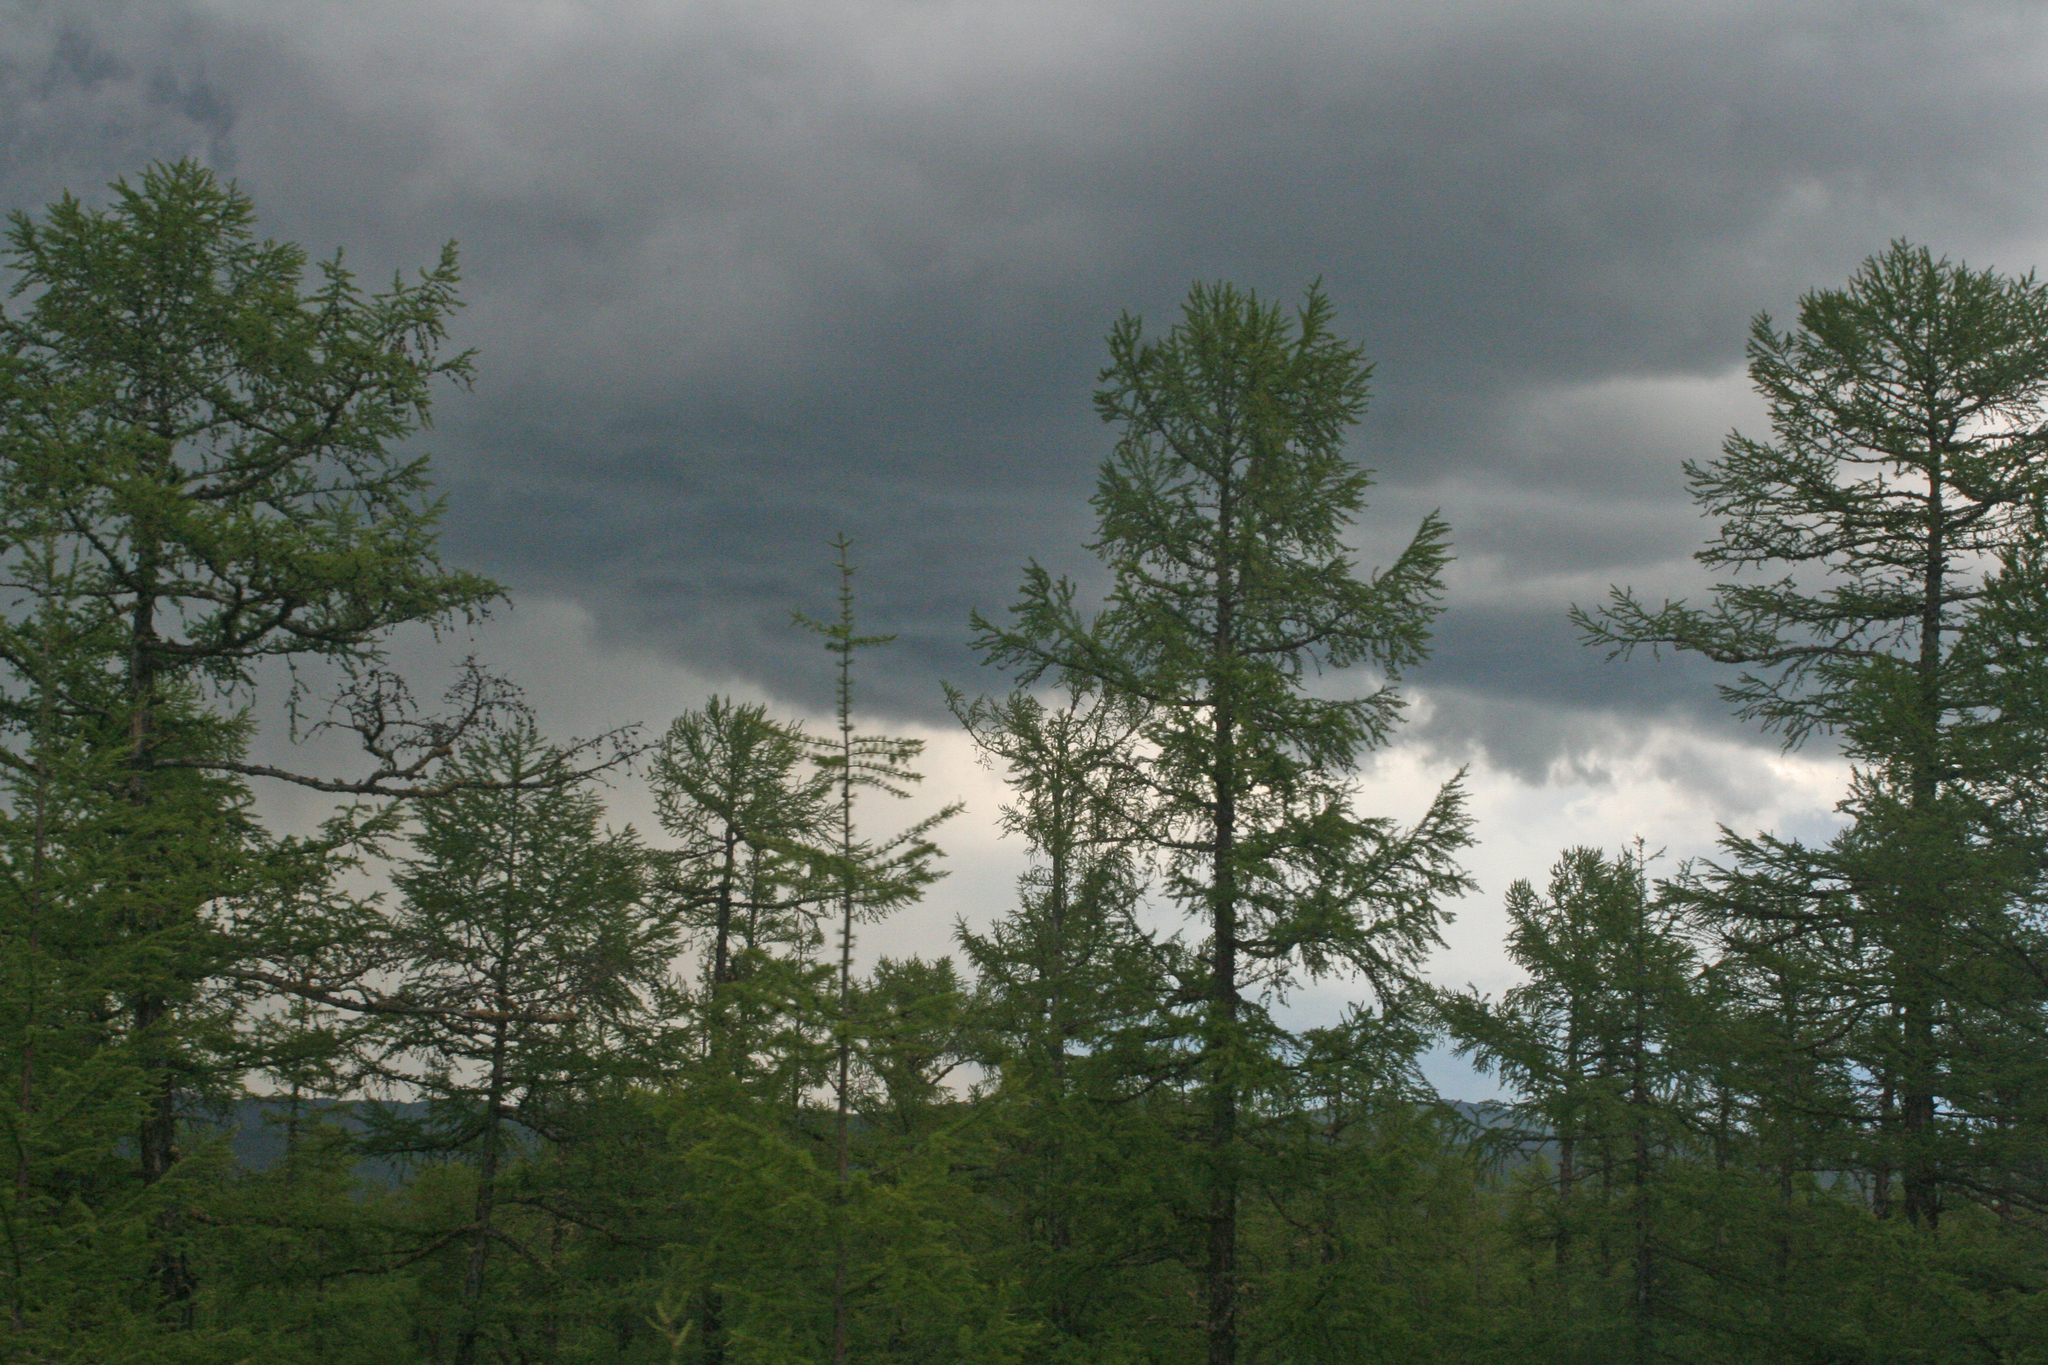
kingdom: Plantae
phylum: Tracheophyta
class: Pinopsida
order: Pinales
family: Pinaceae
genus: Larix
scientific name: Larix gmelinii
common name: Dahurian larch
